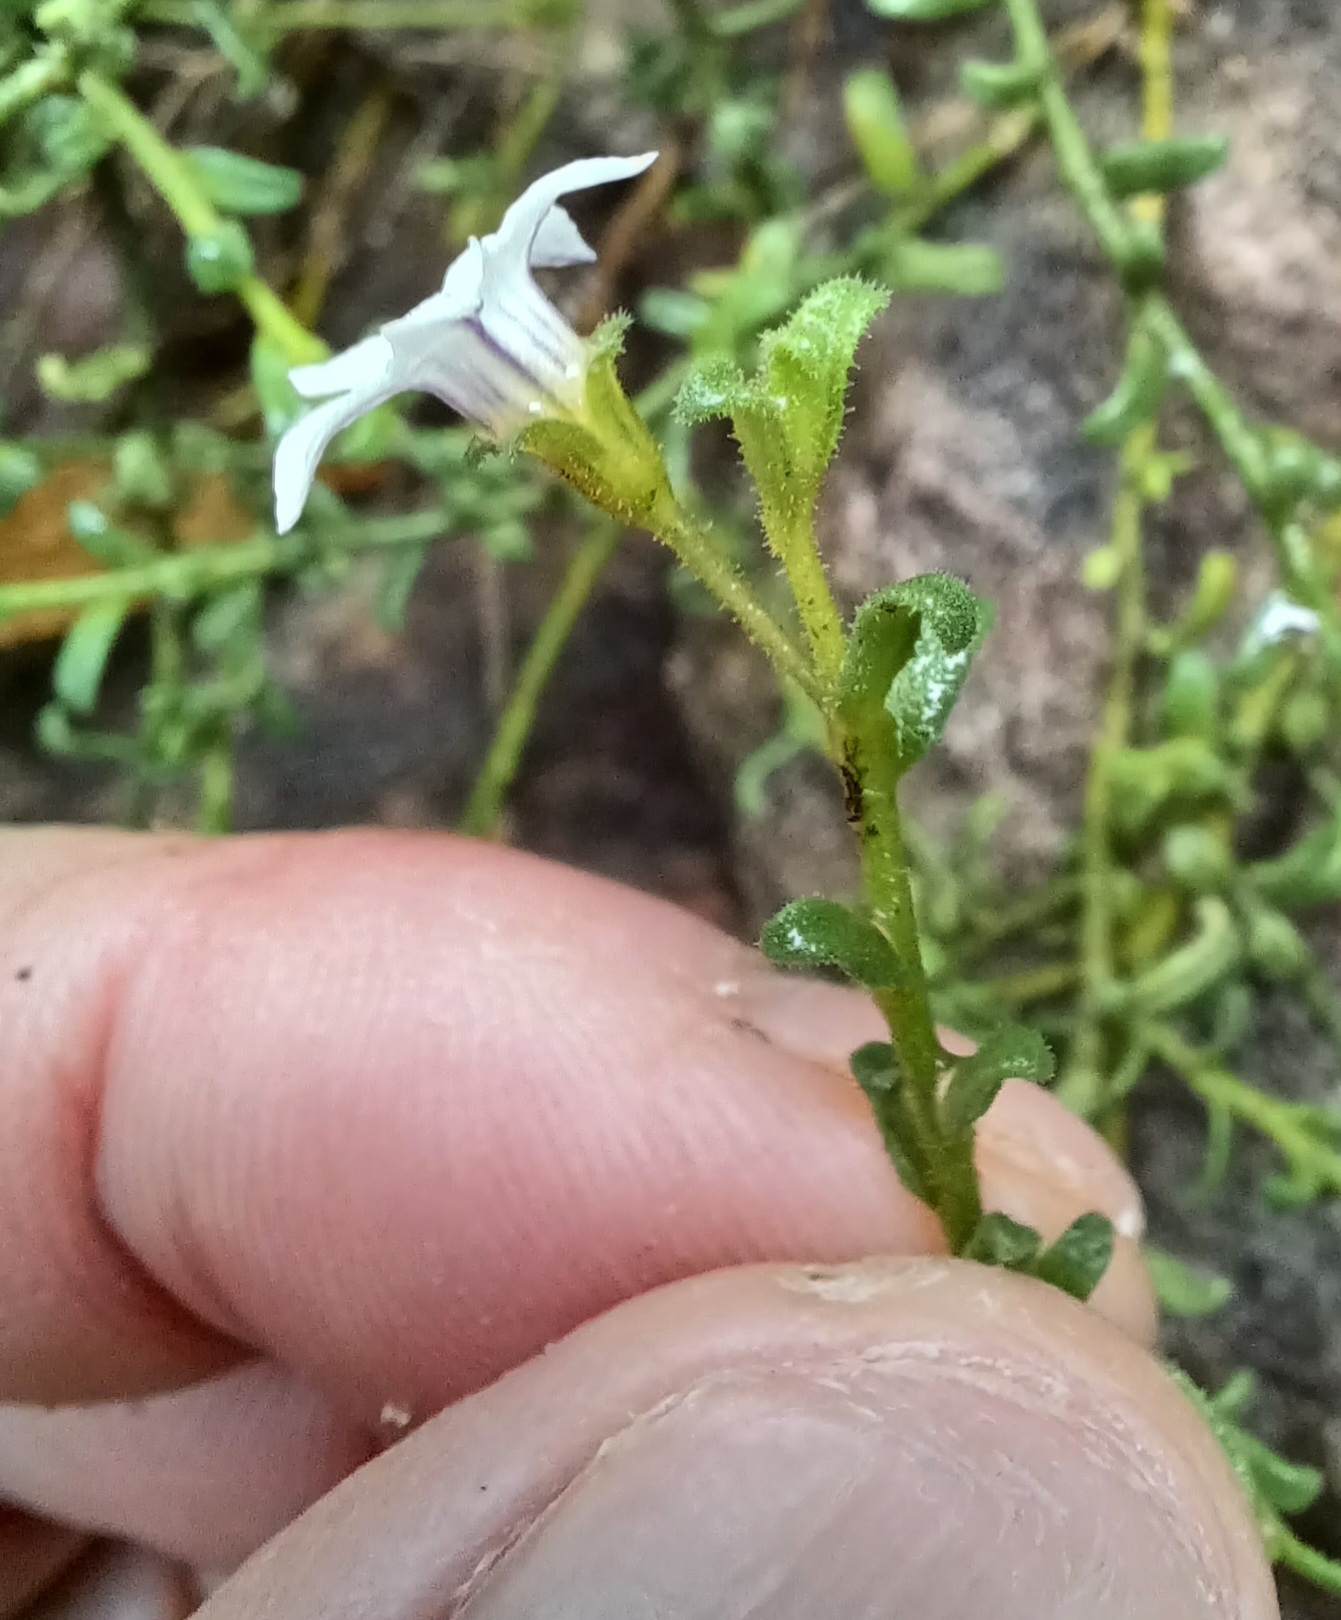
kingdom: Plantae
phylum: Tracheophyta
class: Magnoliopsida
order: Solanales
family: Solanaceae
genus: Cyphanthera
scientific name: Cyphanthera myosotidea
